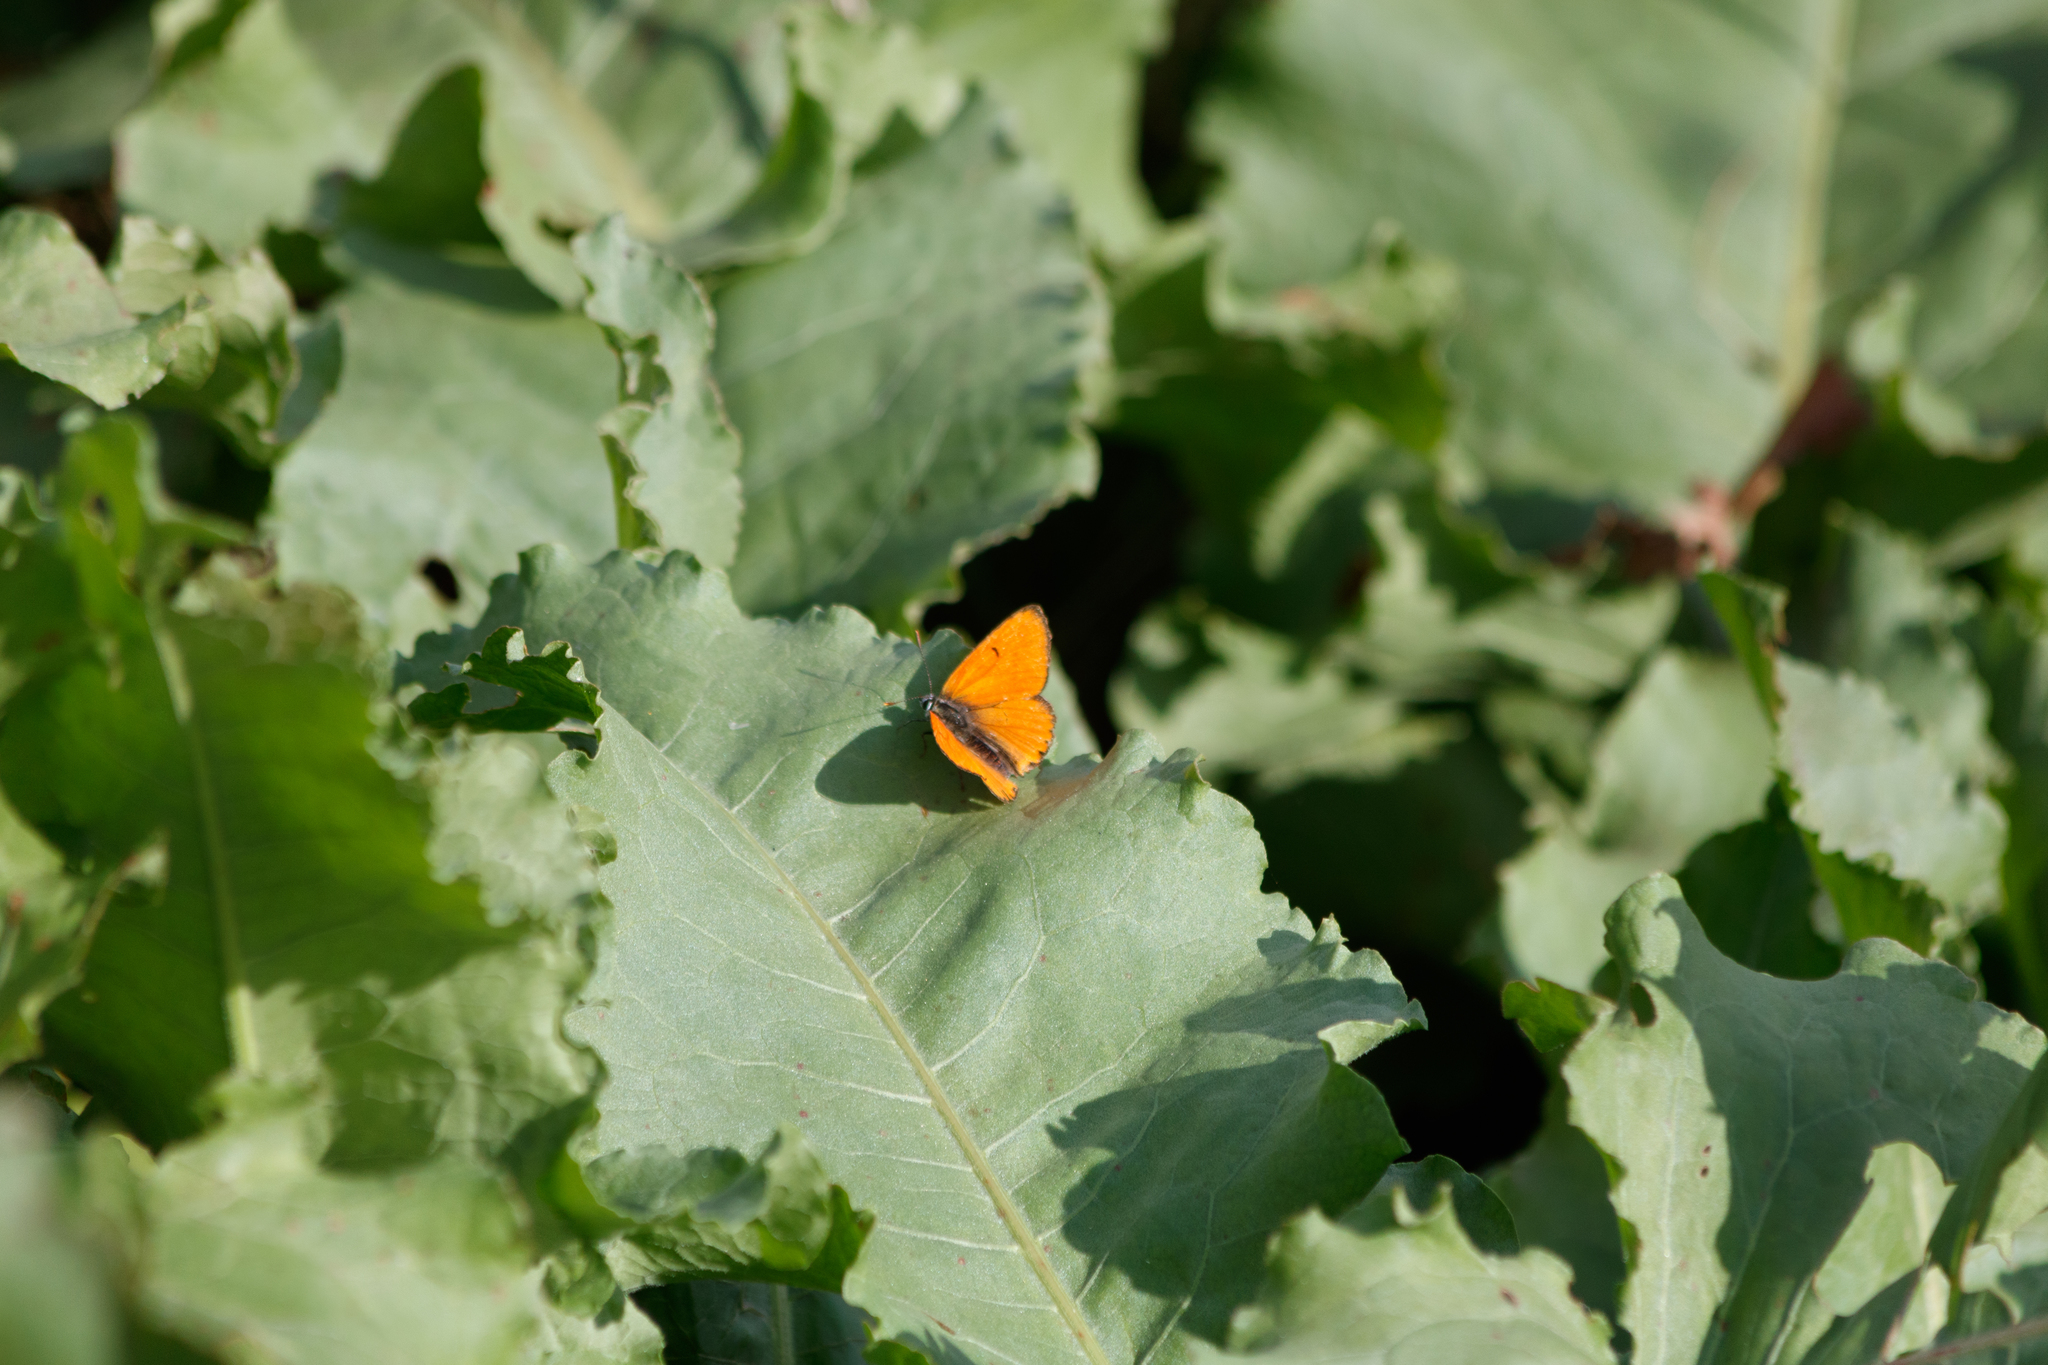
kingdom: Animalia
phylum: Arthropoda
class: Insecta
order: Lepidoptera
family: Lycaenidae
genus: Lycaena
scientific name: Lycaena dispar
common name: Large copper
